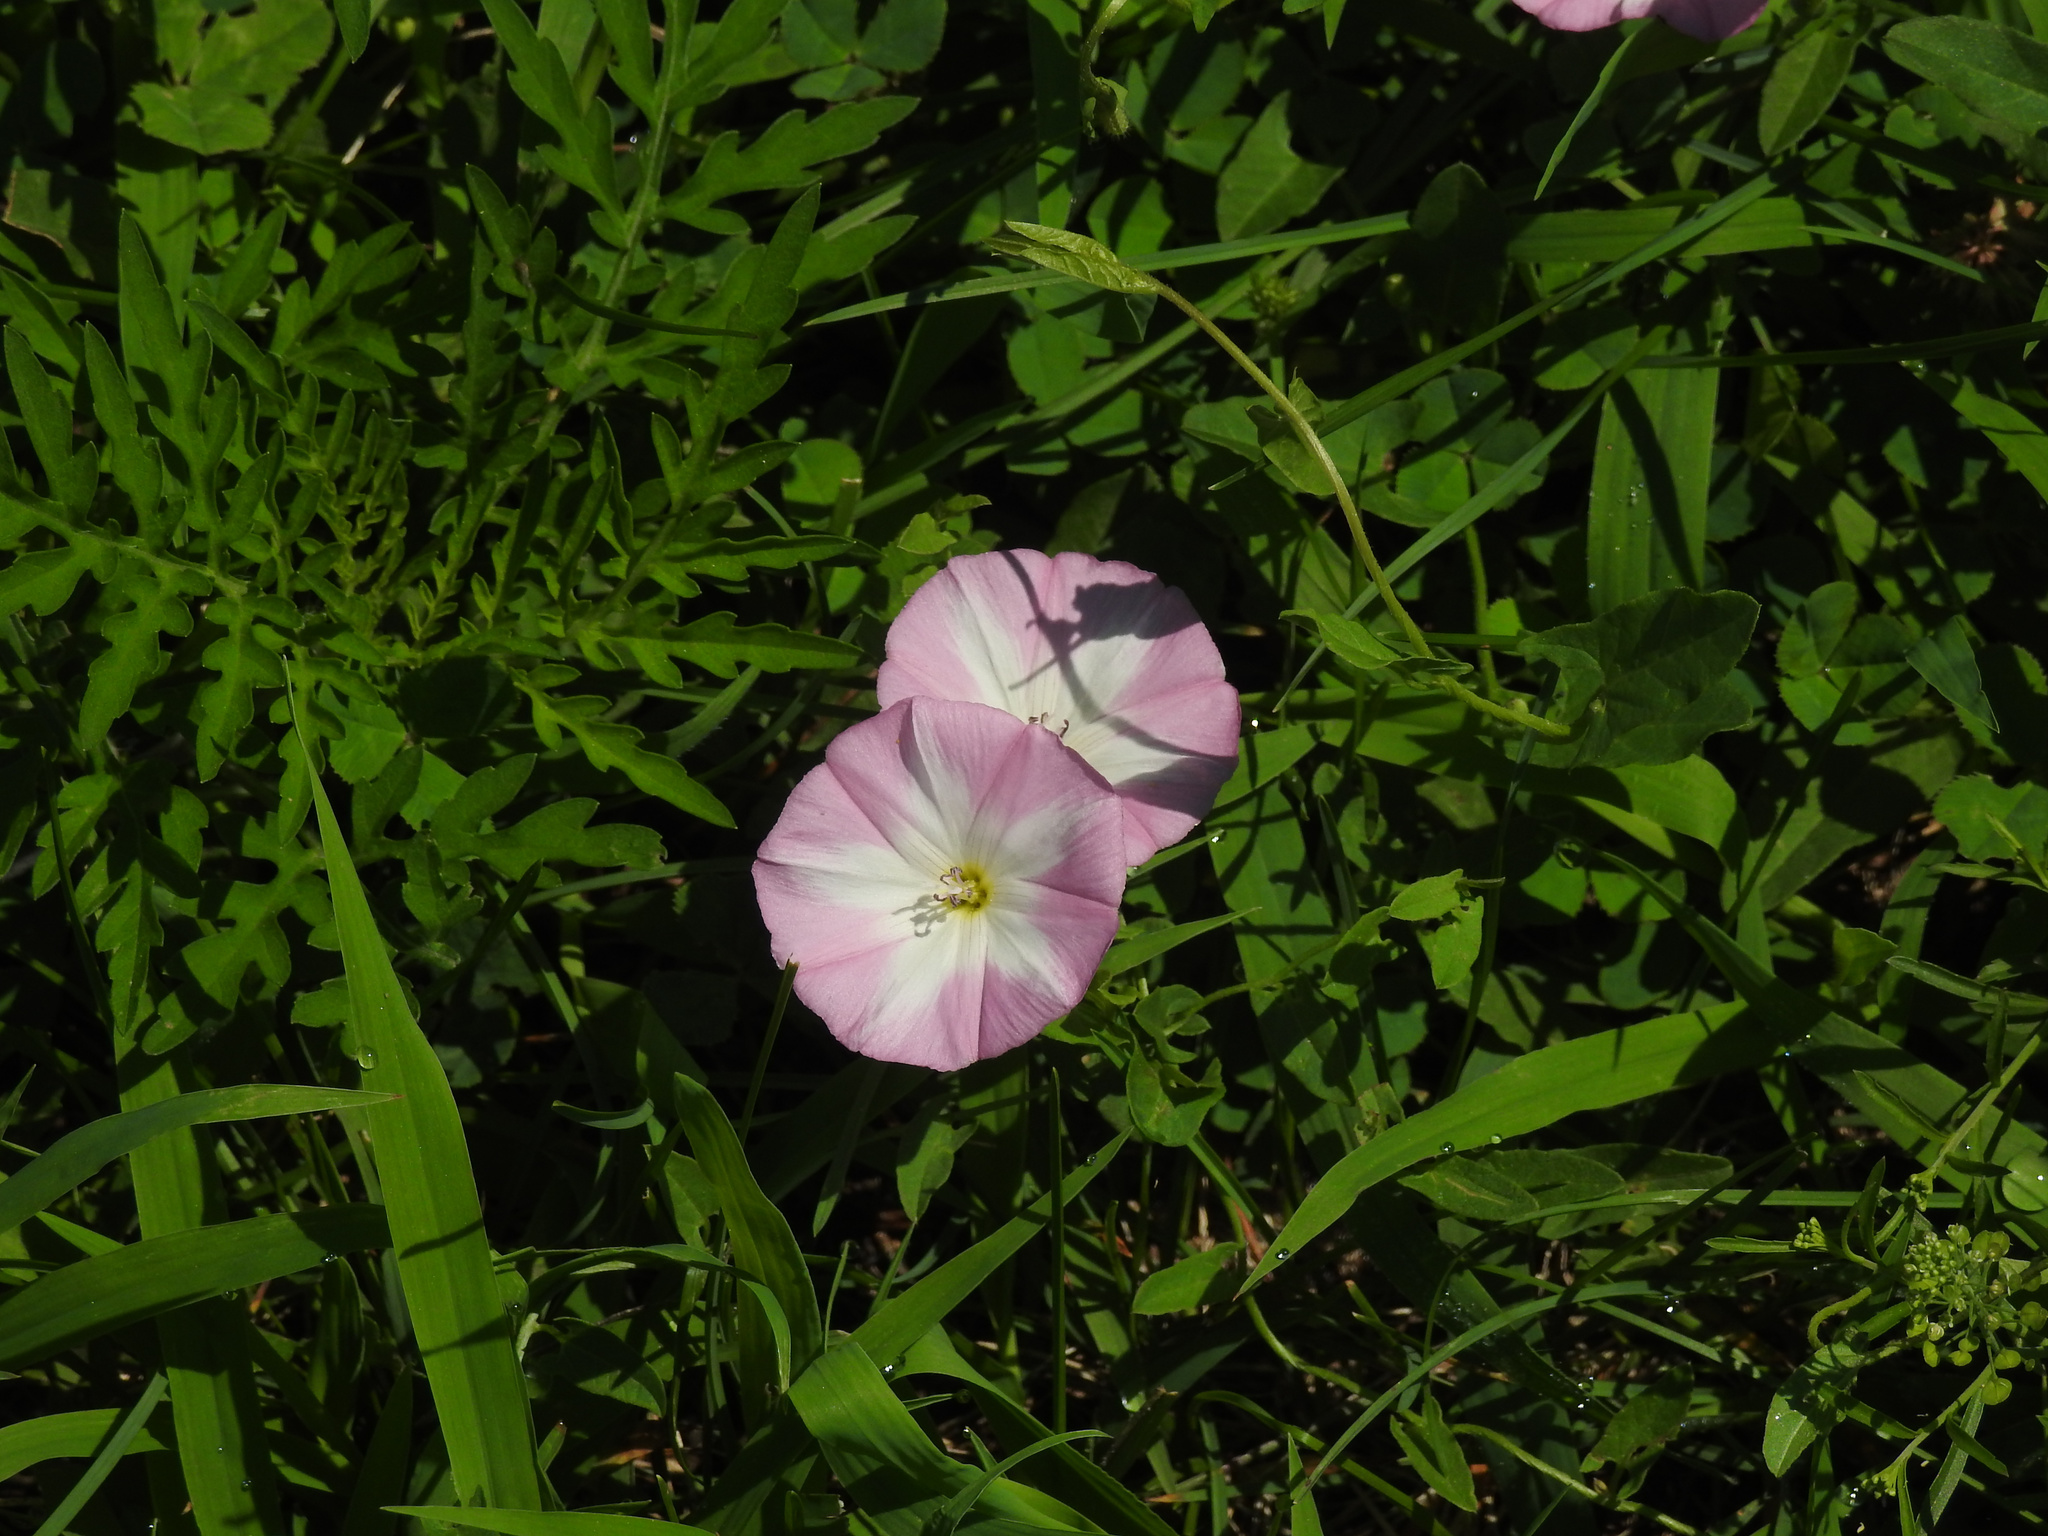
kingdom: Plantae
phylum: Tracheophyta
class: Magnoliopsida
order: Solanales
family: Convolvulaceae
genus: Convolvulus
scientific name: Convolvulus arvensis
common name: Field bindweed
